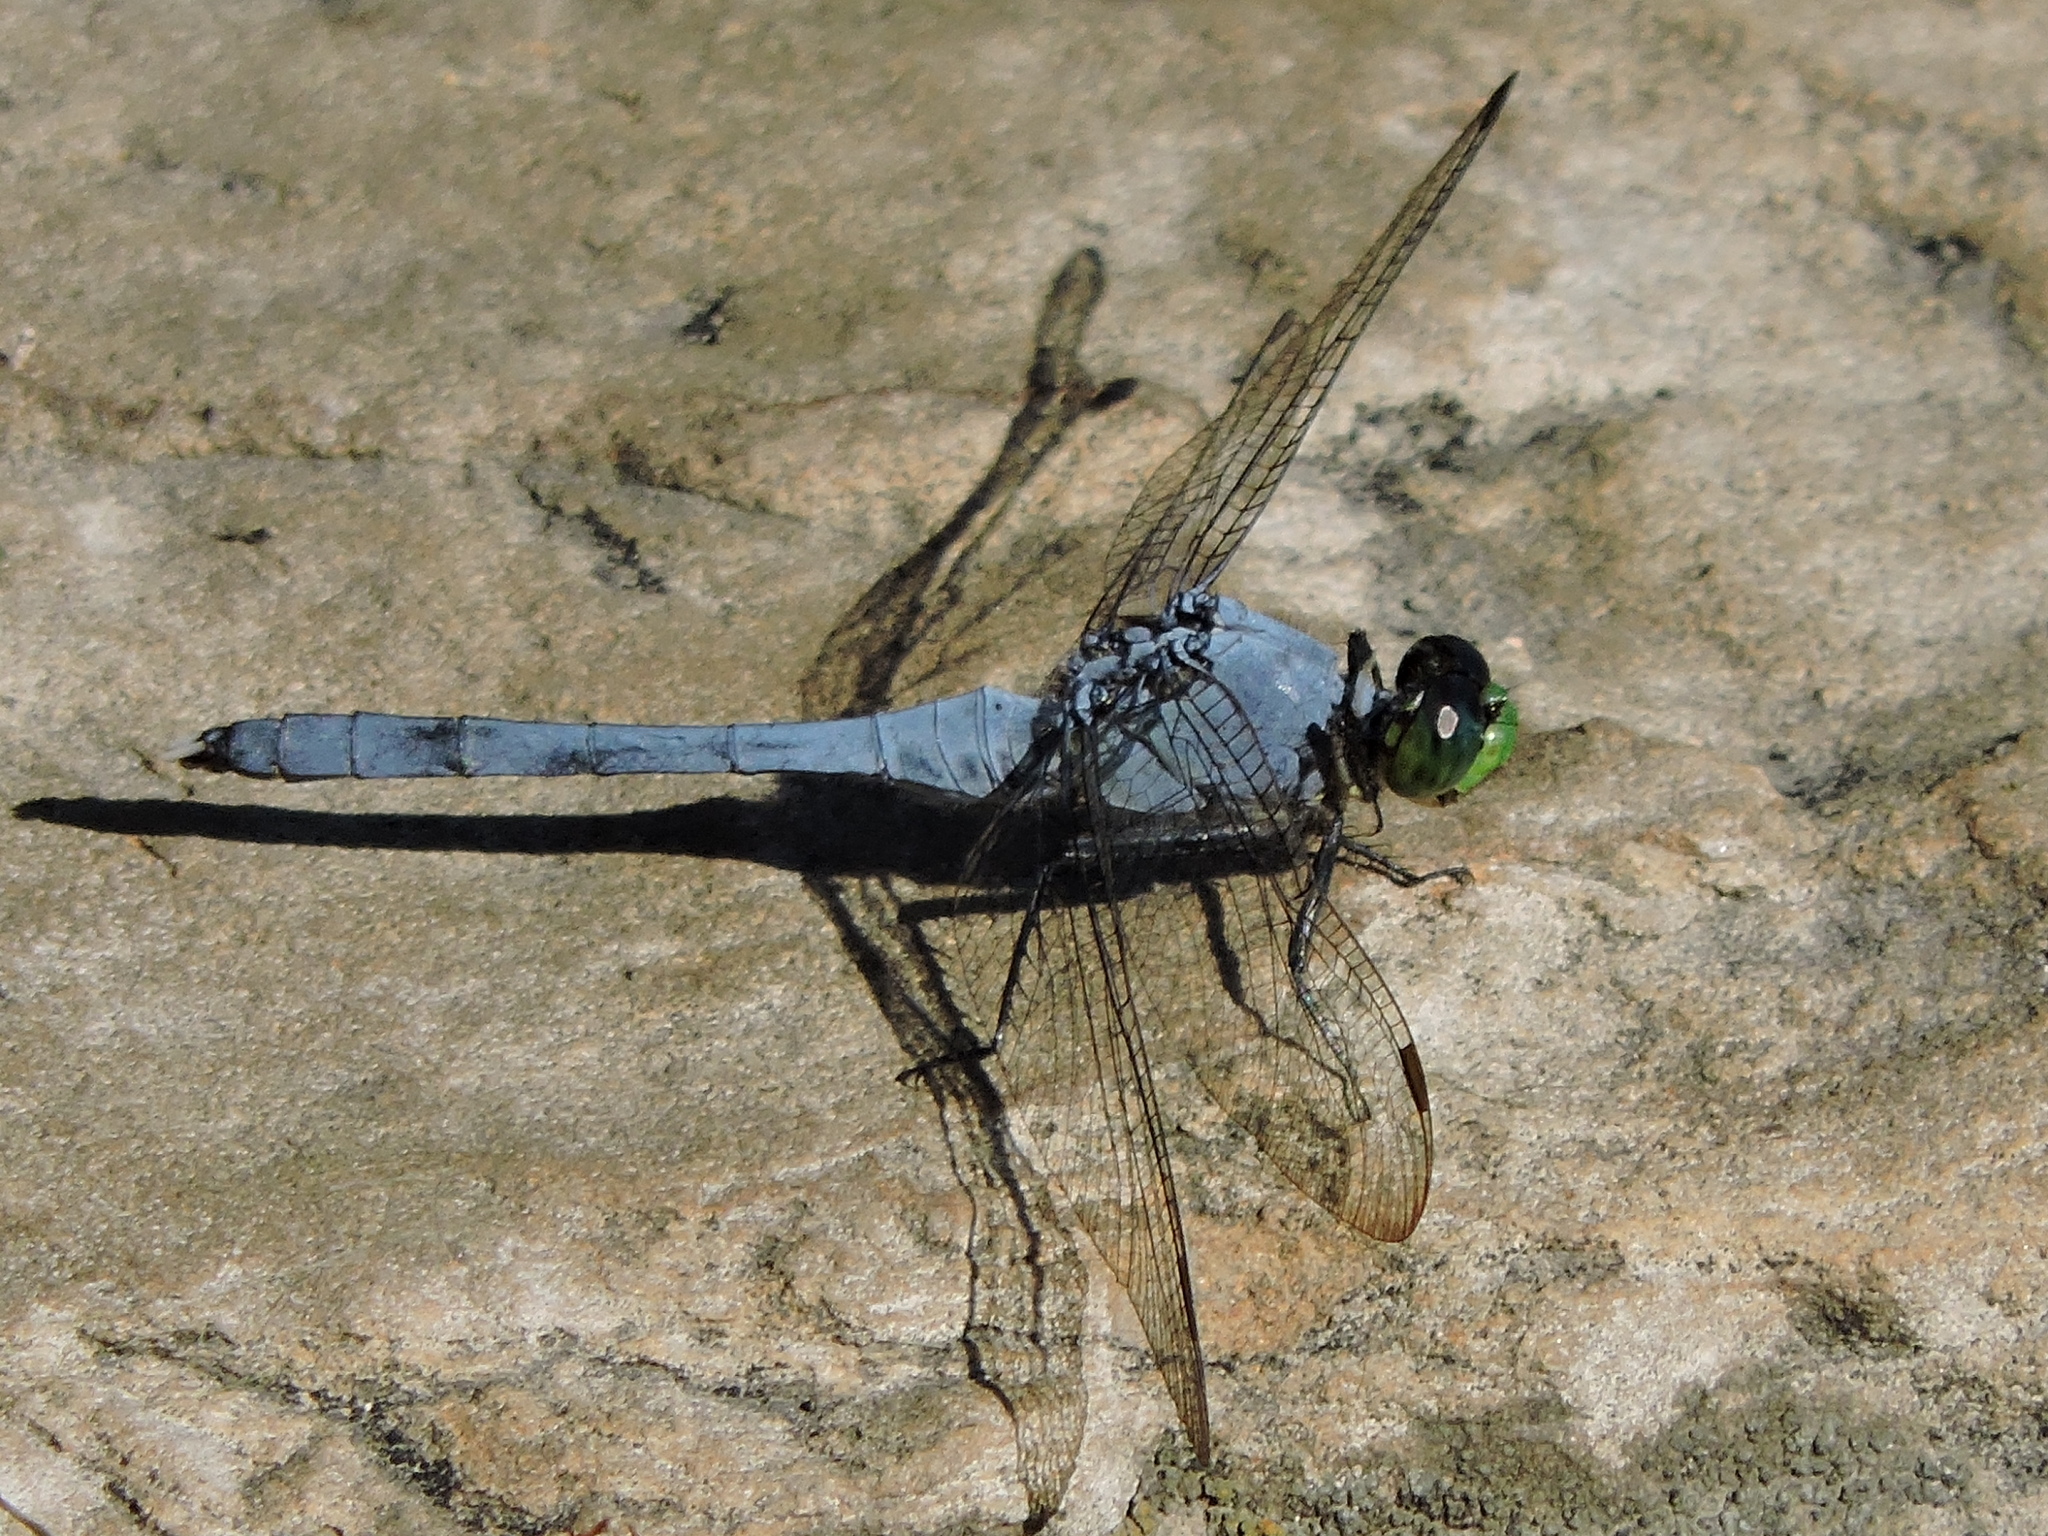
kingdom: Animalia
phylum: Arthropoda
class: Insecta
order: Odonata
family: Libellulidae
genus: Erythemis
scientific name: Erythemis simplicicollis
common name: Eastern pondhawk
